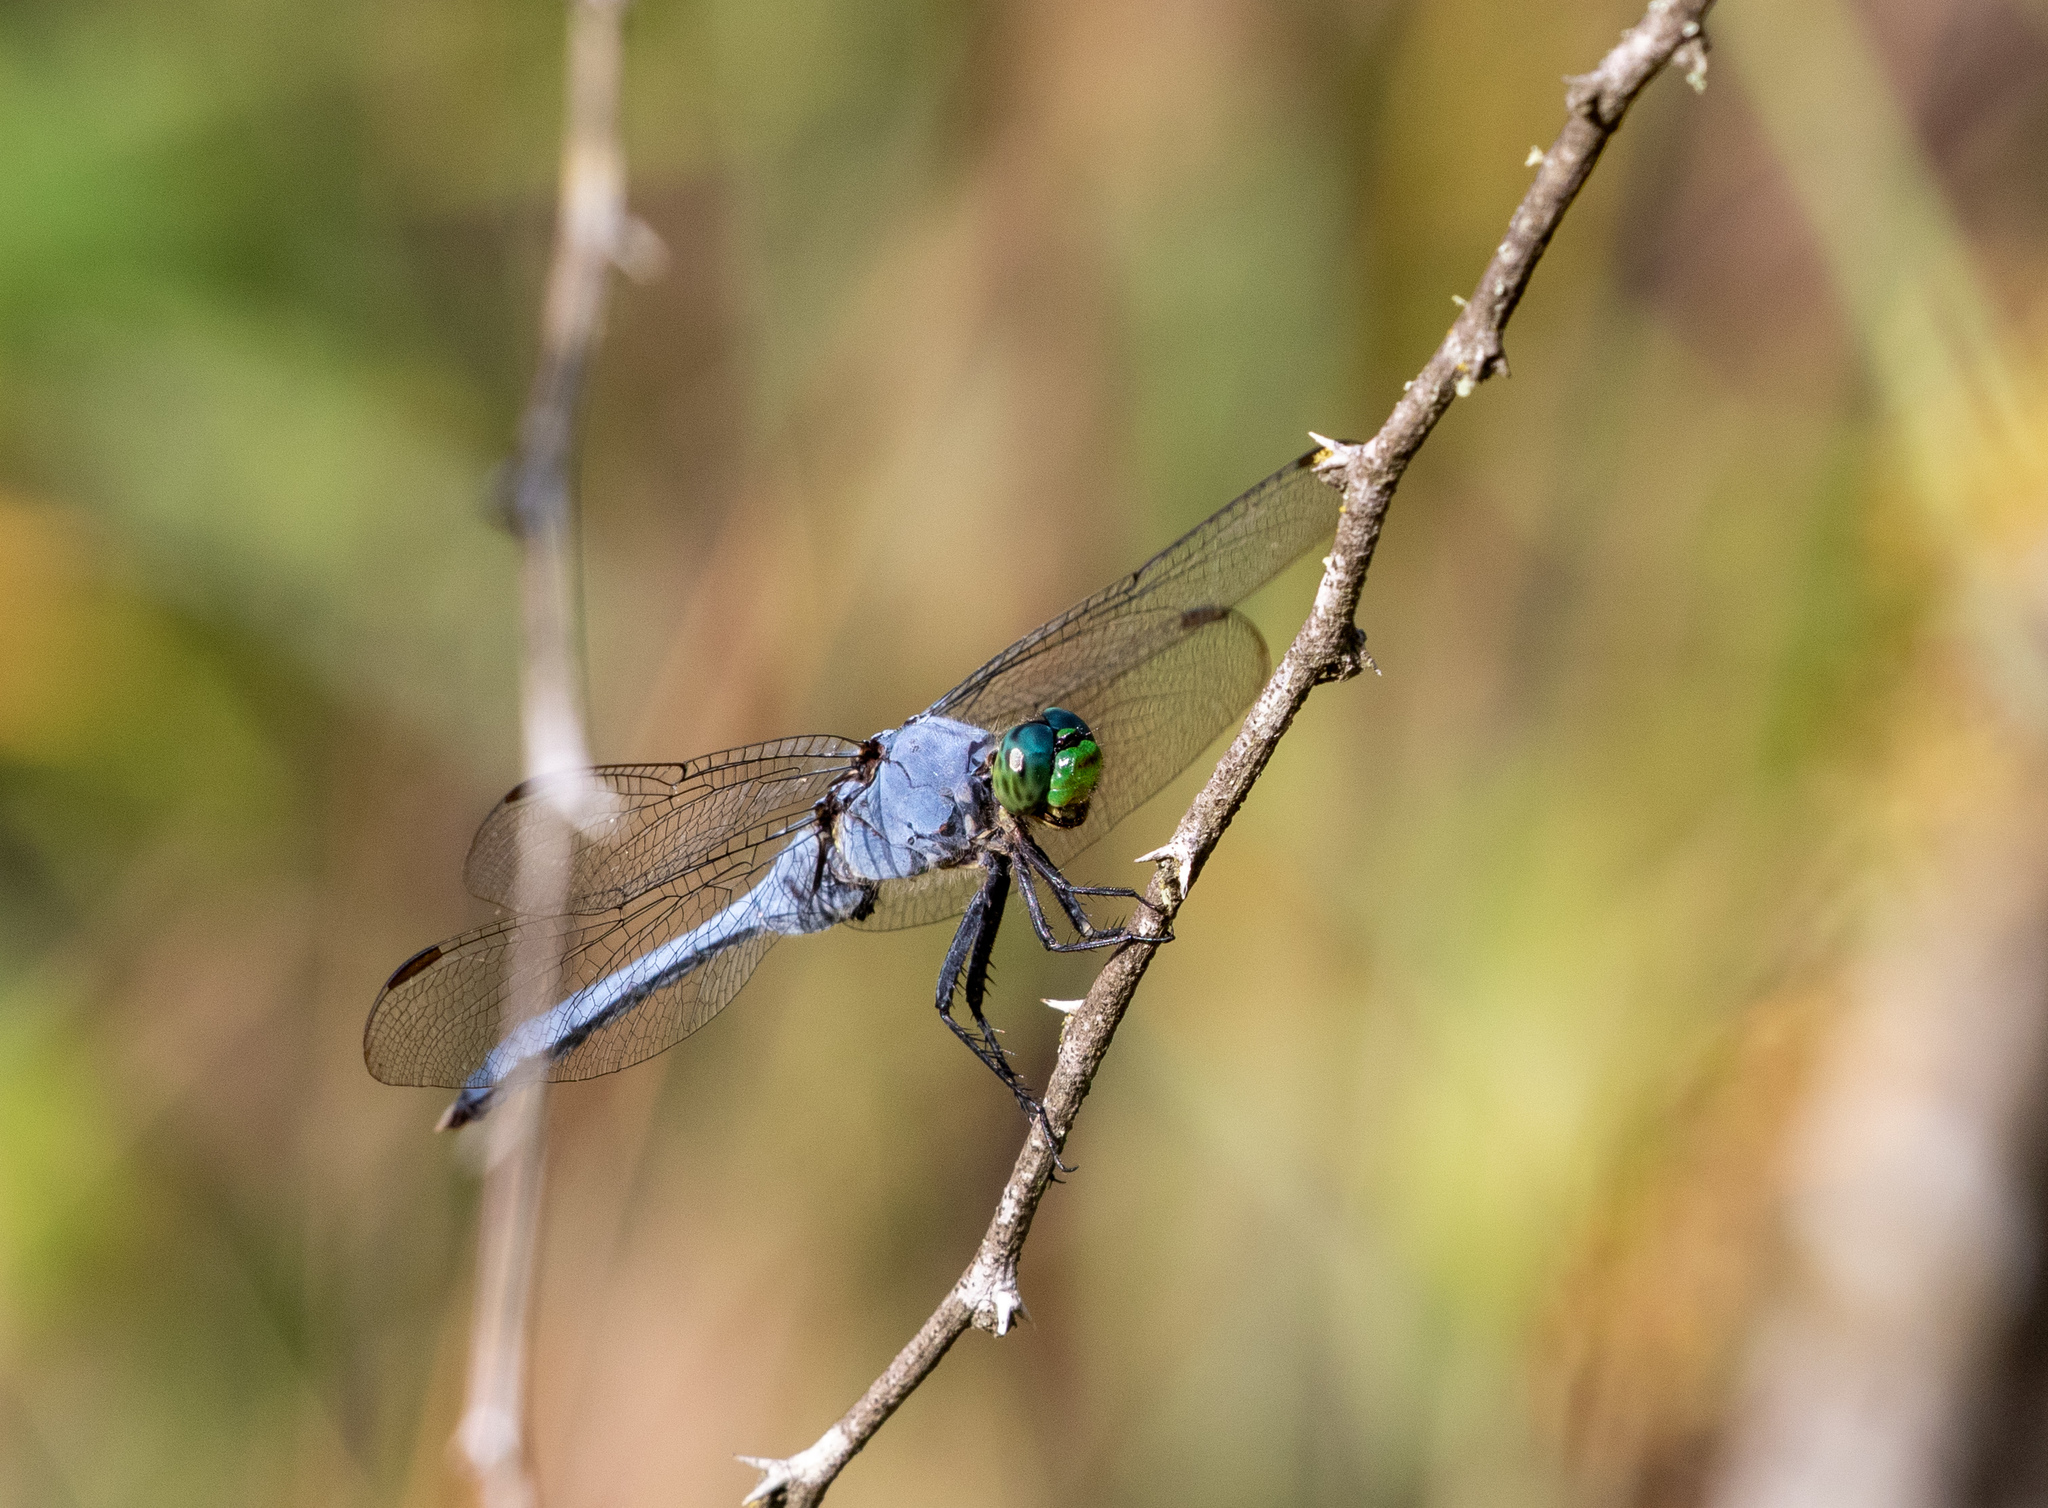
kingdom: Animalia
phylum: Arthropoda
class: Insecta
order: Odonata
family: Libellulidae
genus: Erythemis
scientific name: Erythemis simplicicollis
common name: Eastern pondhawk
